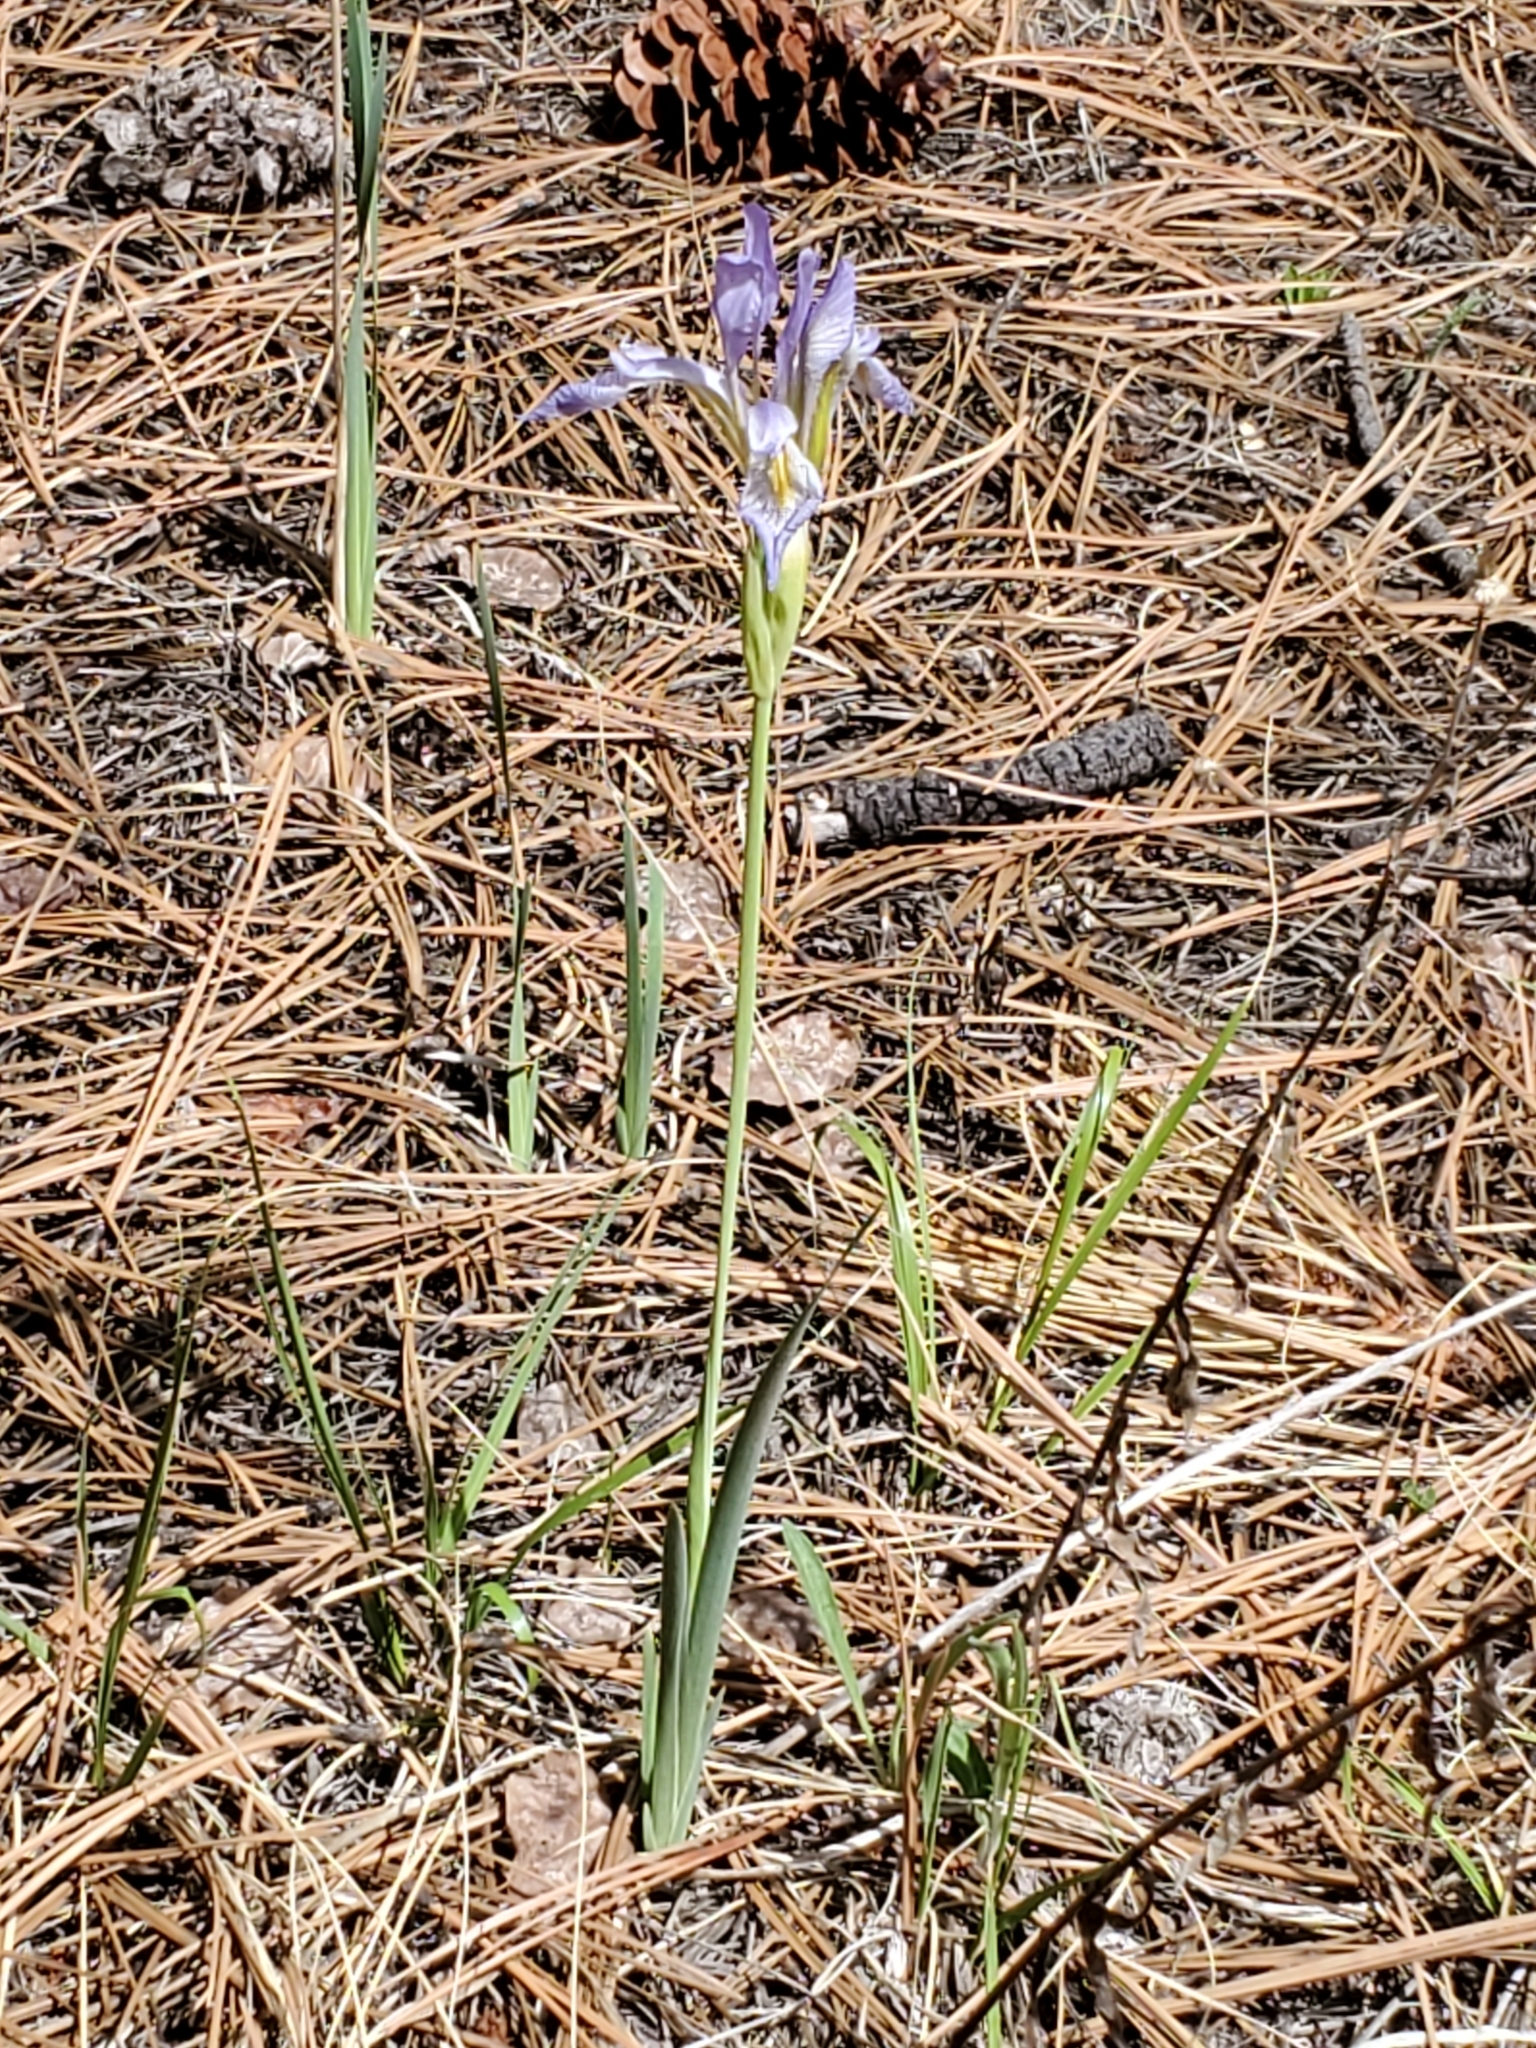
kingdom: Plantae
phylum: Tracheophyta
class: Liliopsida
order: Asparagales
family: Iridaceae
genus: Iris
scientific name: Iris missouriensis
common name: Rocky mountain iris
